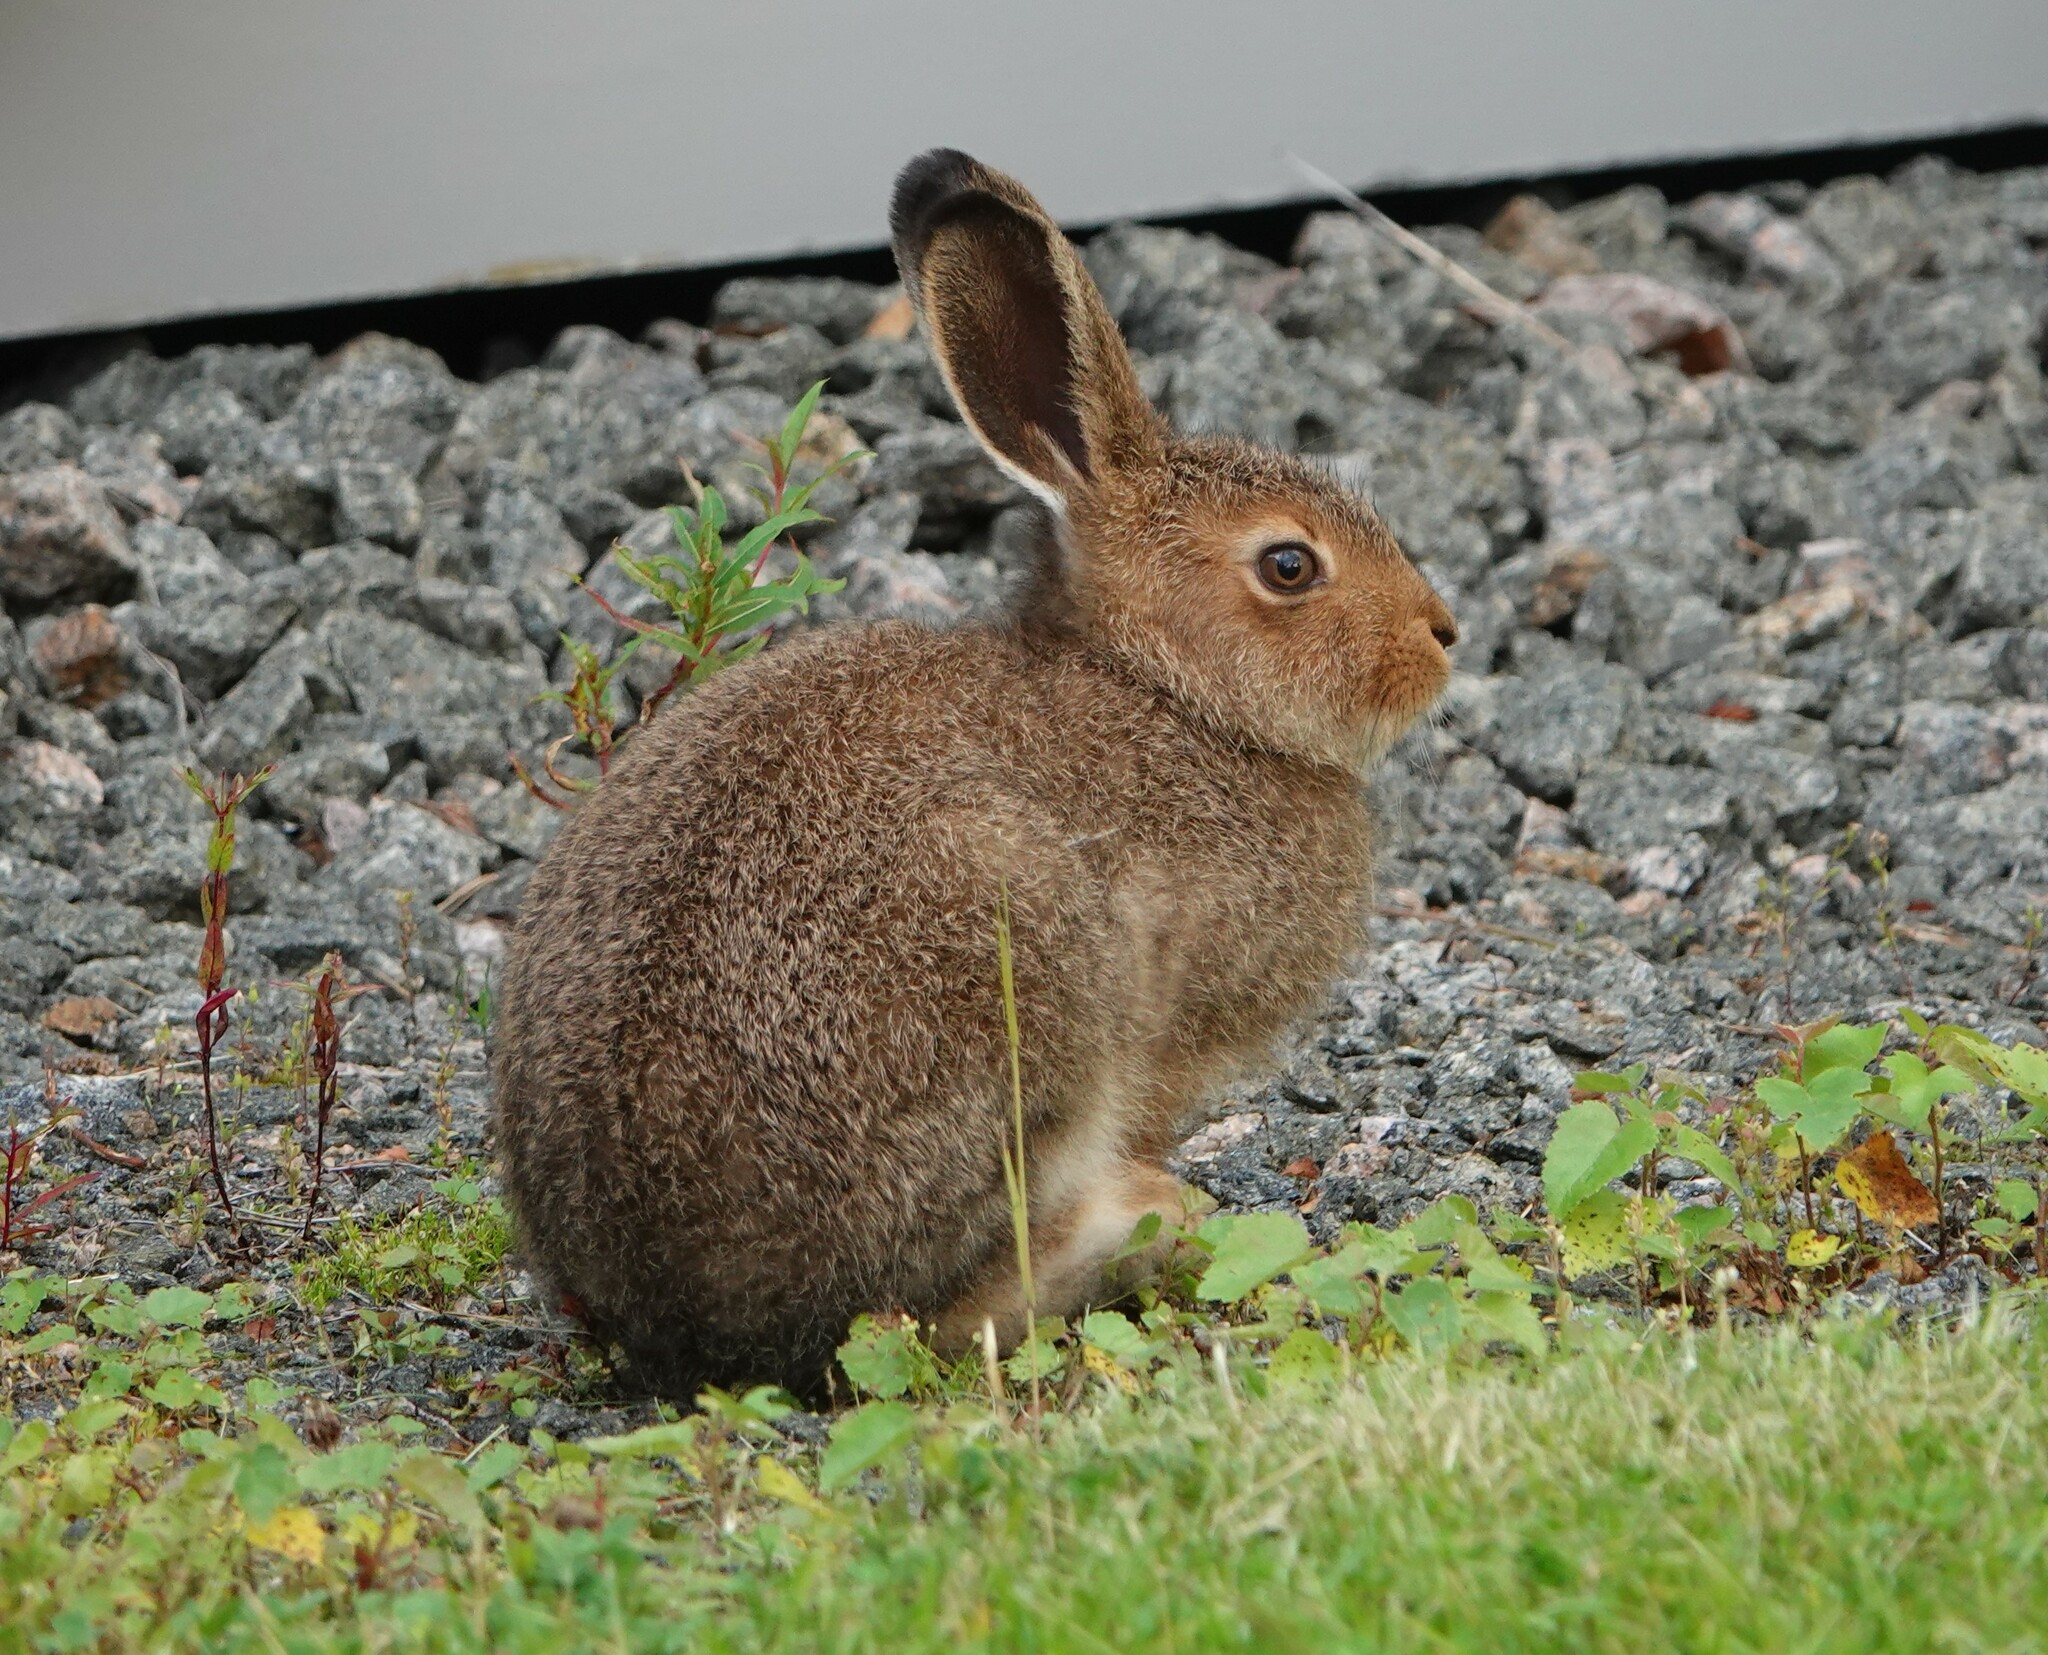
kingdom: Animalia
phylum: Chordata
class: Mammalia
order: Lagomorpha
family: Leporidae
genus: Lepus
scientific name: Lepus timidus
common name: Mountain hare
